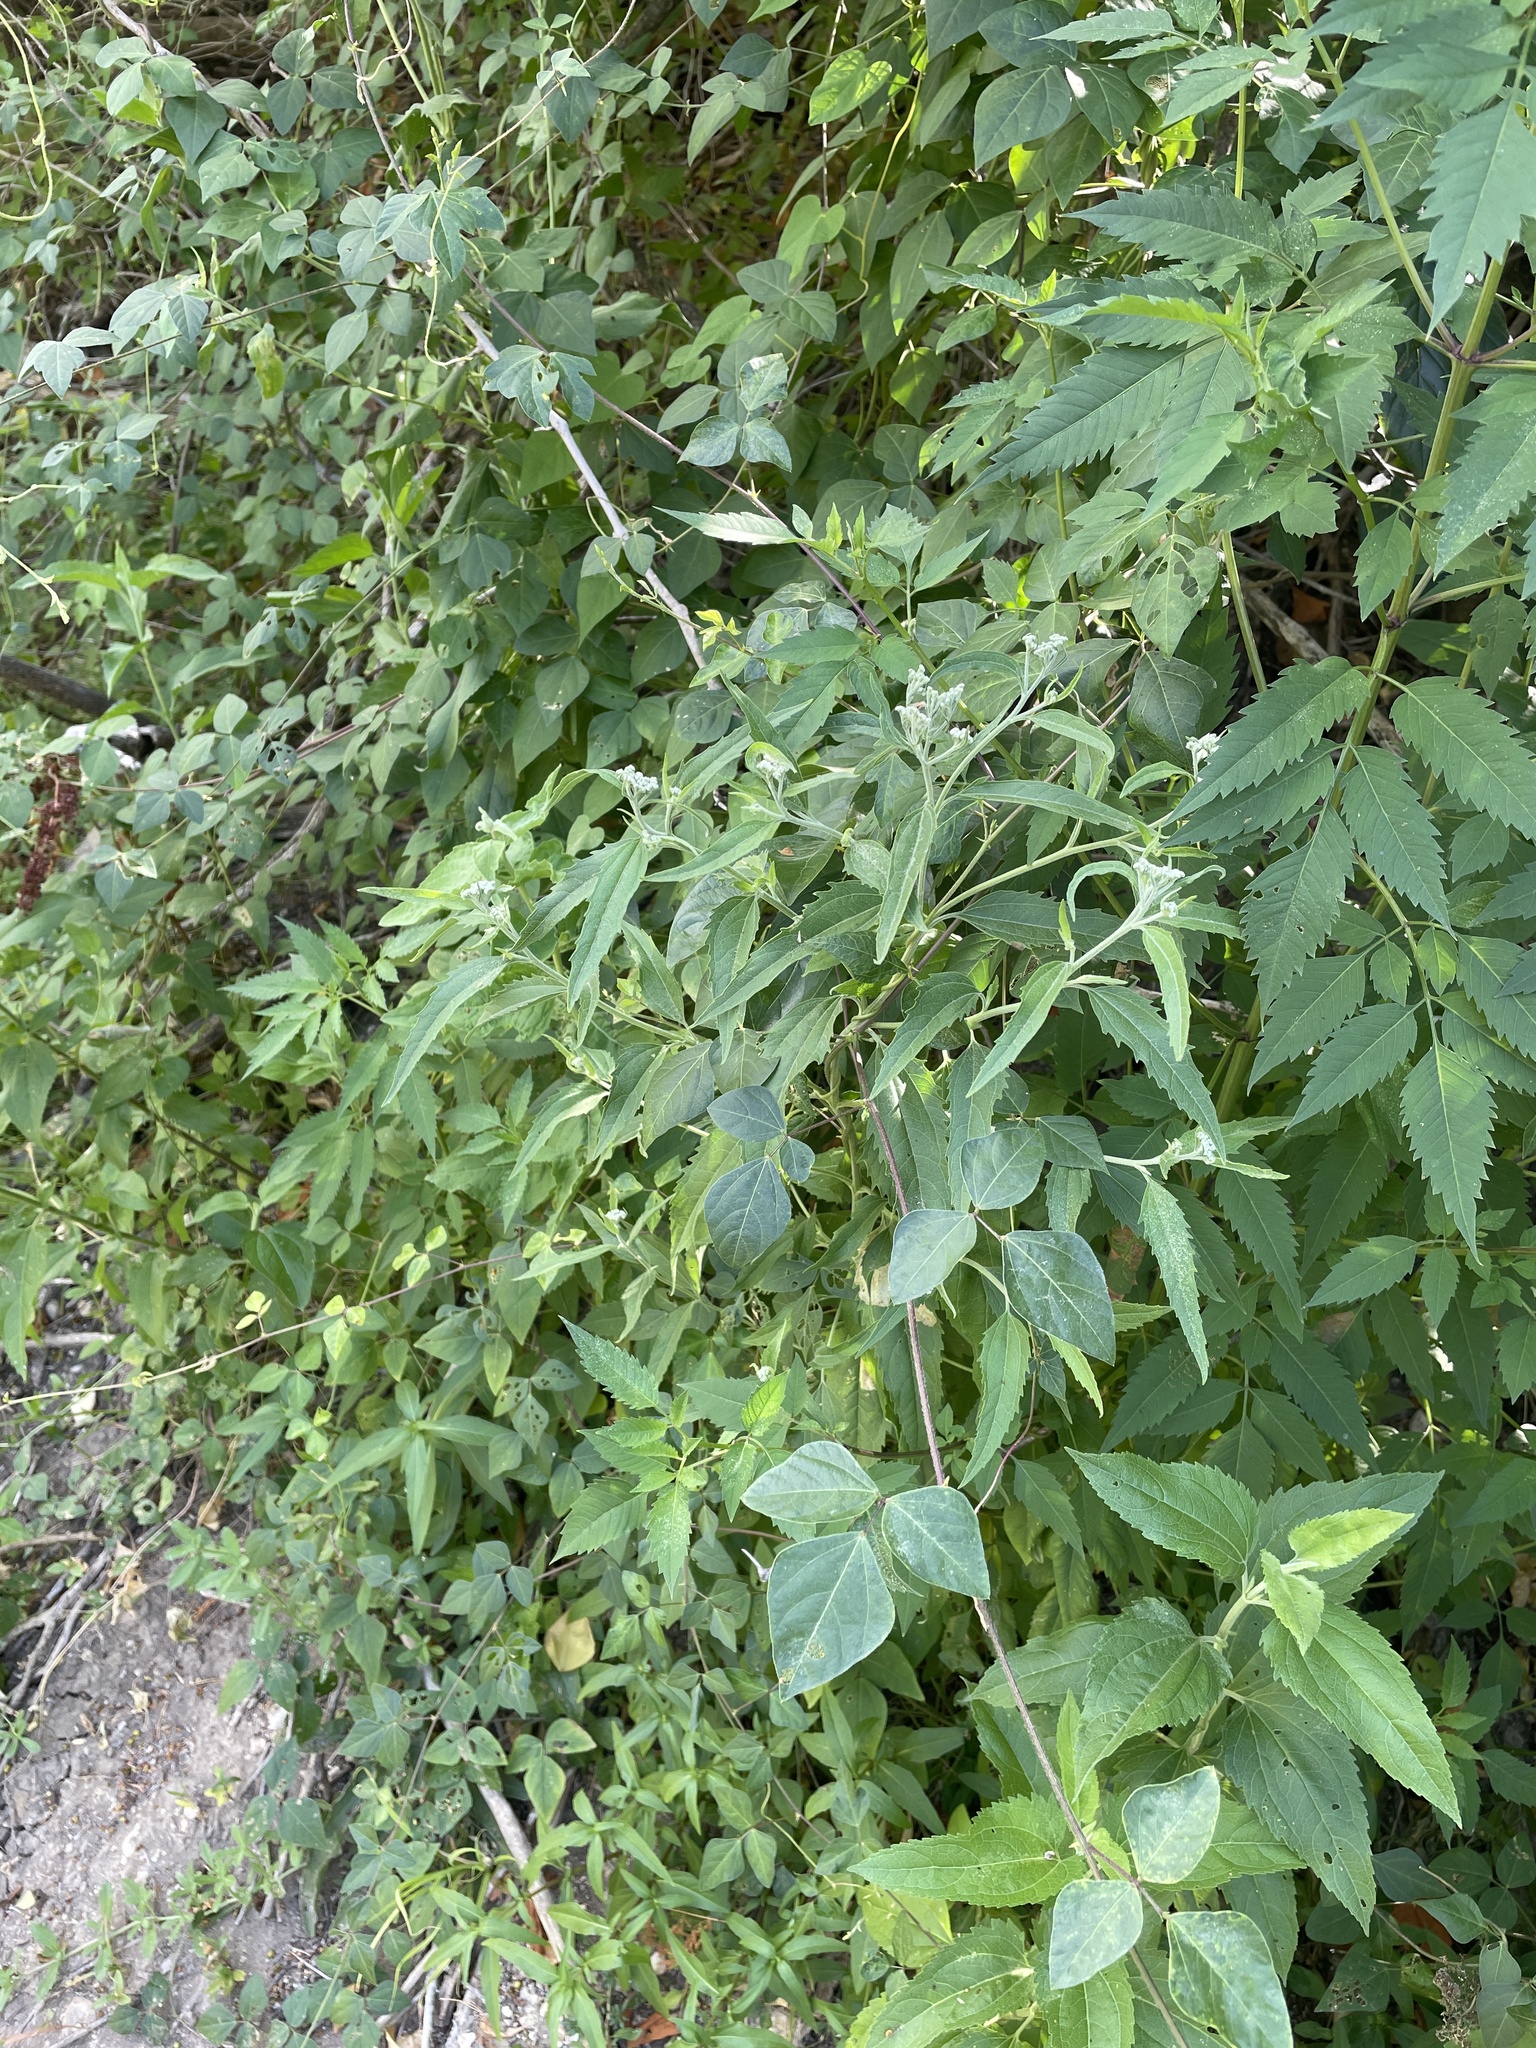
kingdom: Plantae
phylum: Tracheophyta
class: Magnoliopsida
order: Asterales
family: Asteraceae
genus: Eupatorium
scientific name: Eupatorium serotinum
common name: Late boneset
